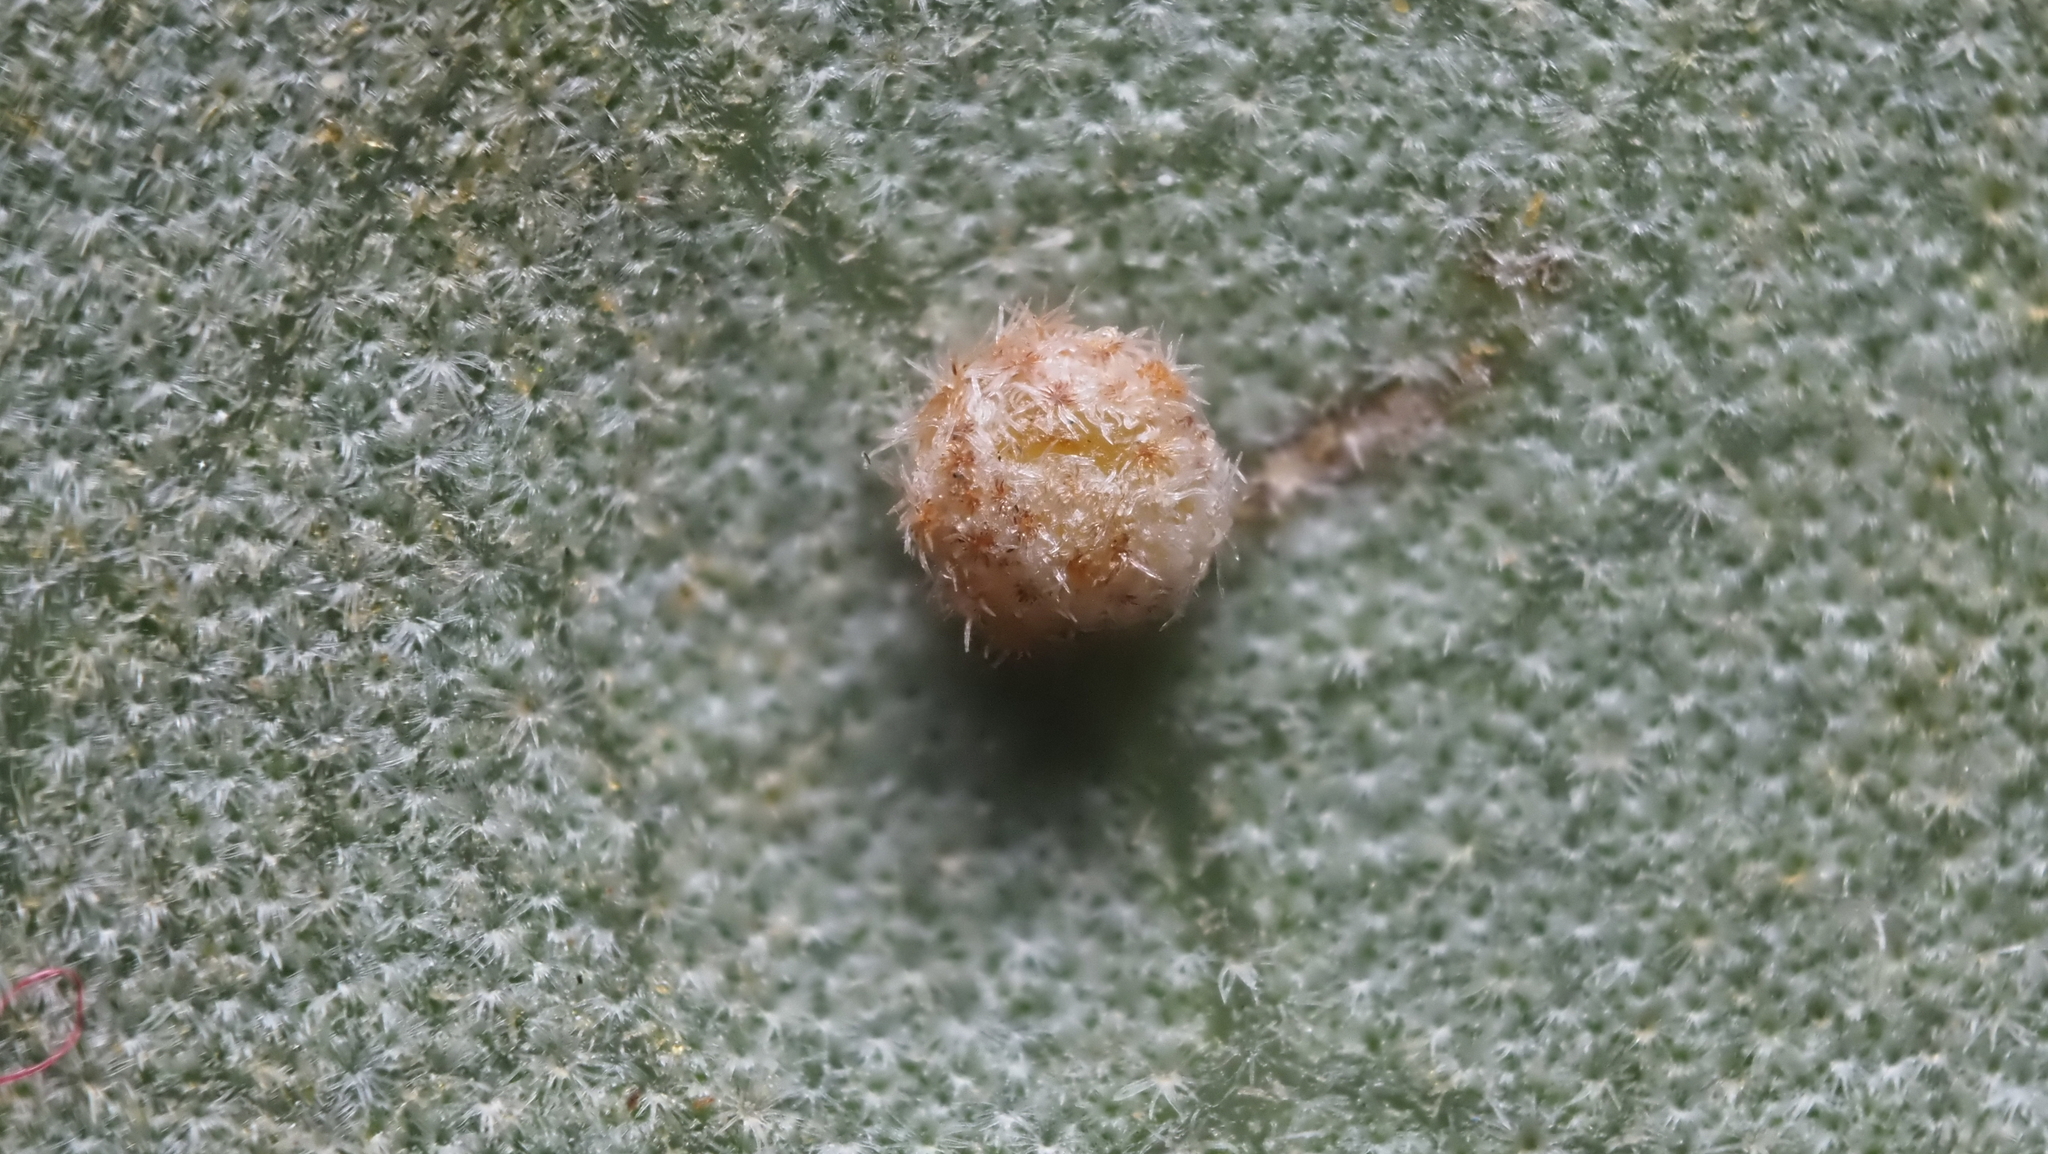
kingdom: Animalia
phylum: Arthropoda
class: Insecta
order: Hymenoptera
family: Cynipidae
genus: Belonocnema
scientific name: Belonocnema kinseyi
